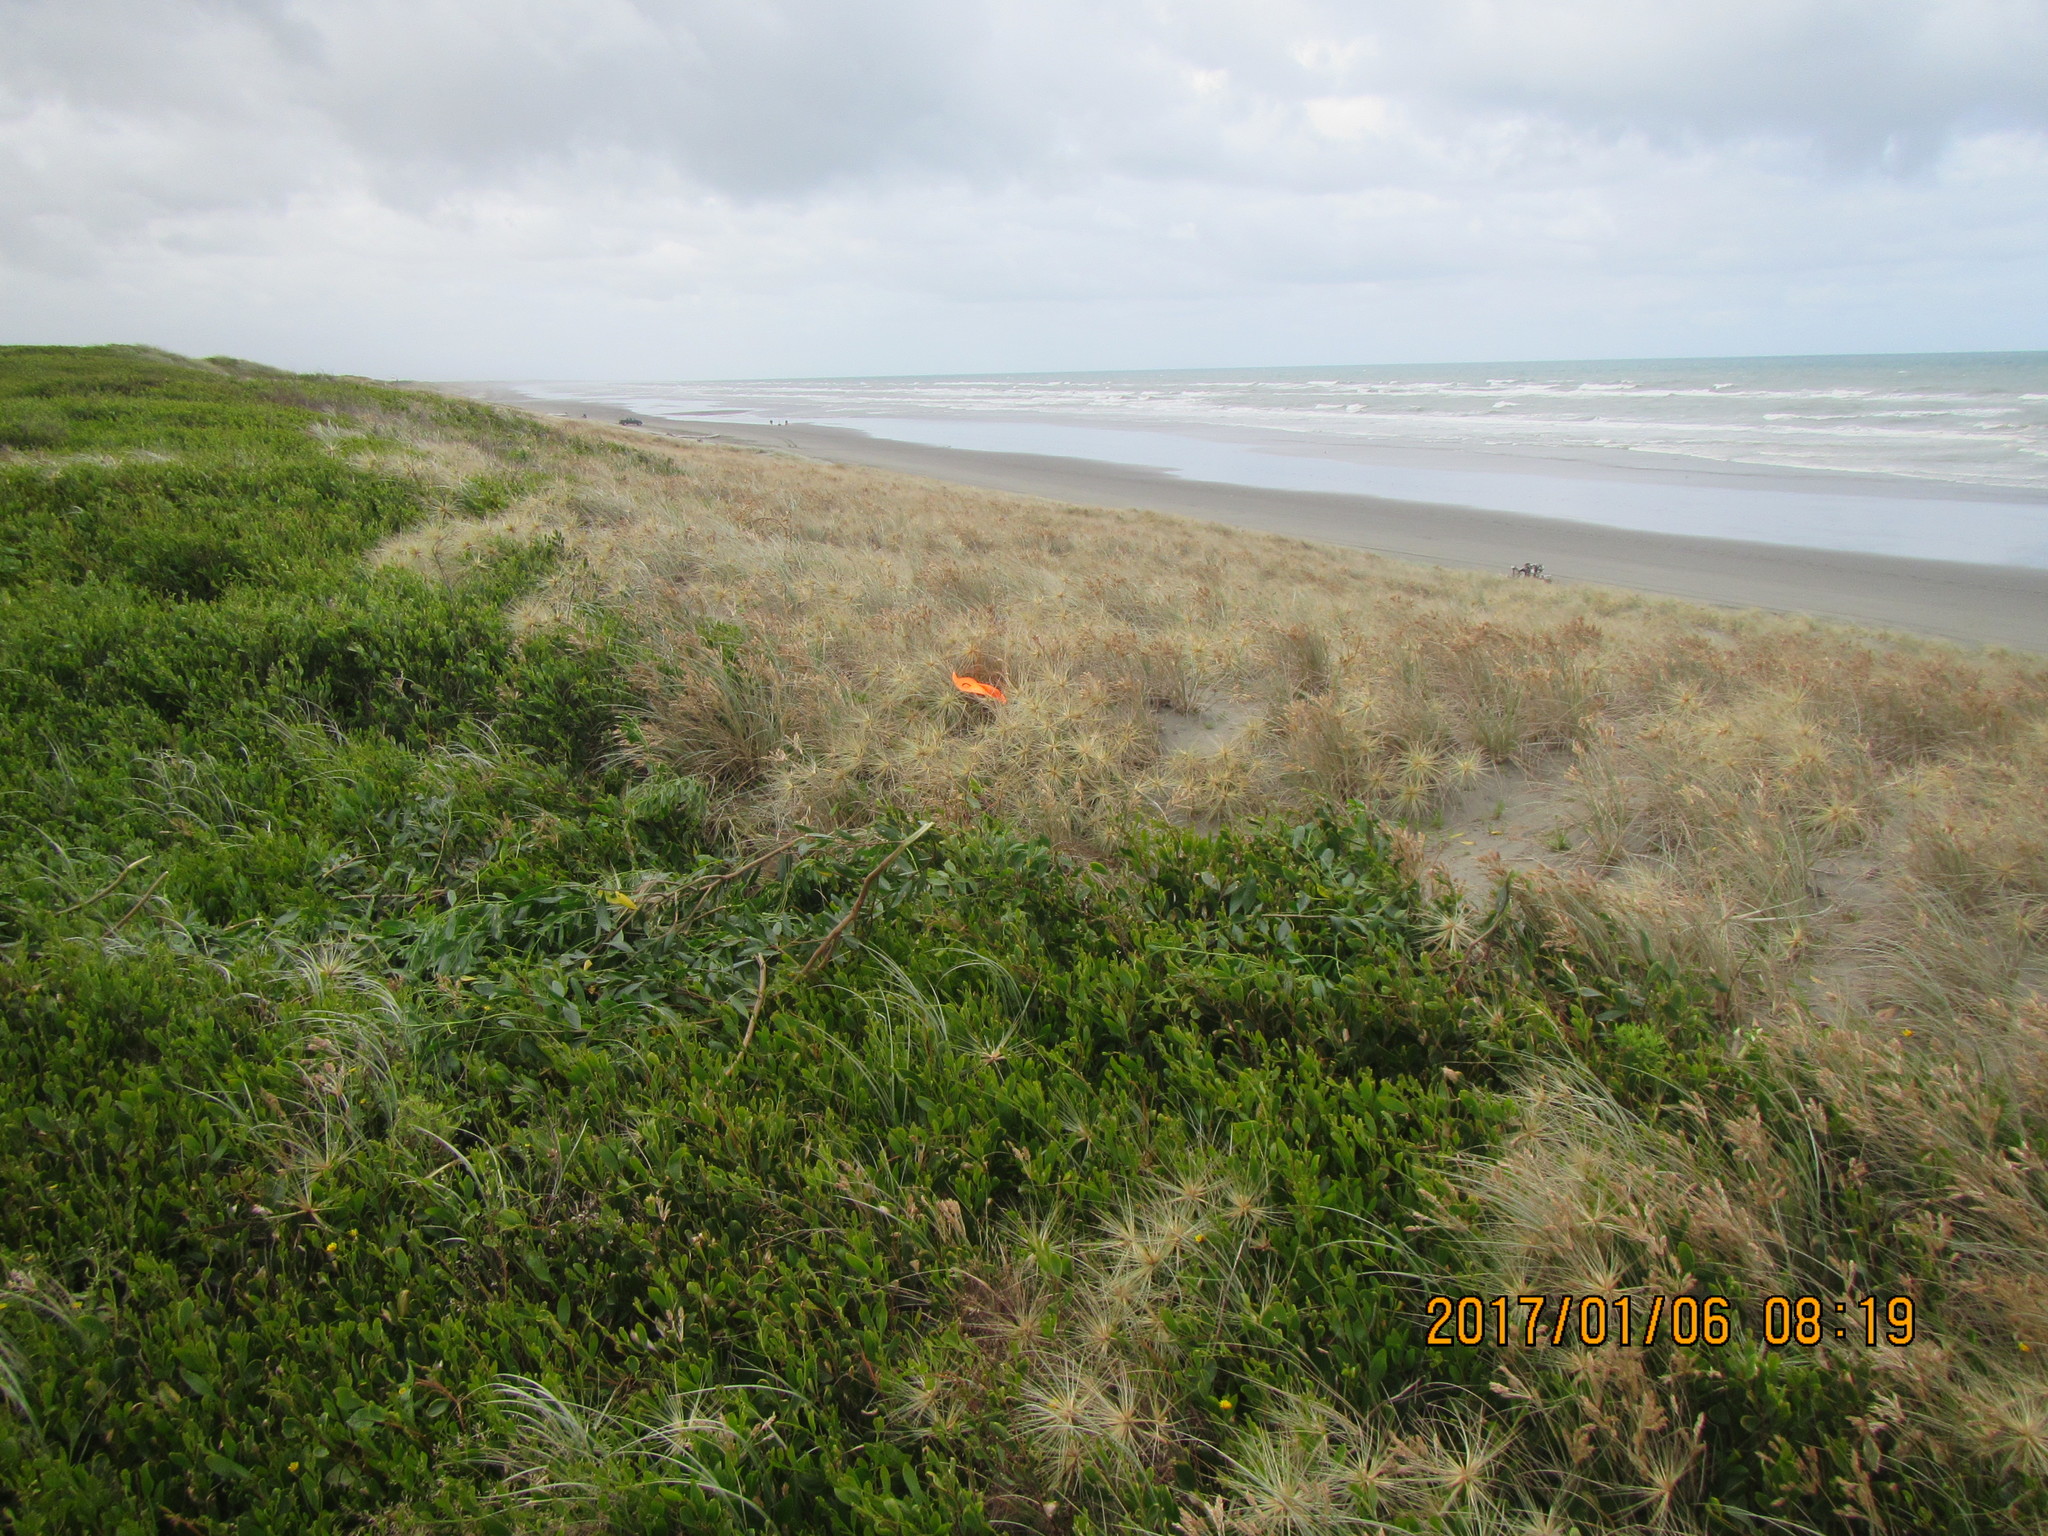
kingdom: Animalia
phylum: Arthropoda
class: Insecta
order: Coleoptera
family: Coccinellidae
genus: Coccinella
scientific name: Coccinella undecimpunctata
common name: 11-spot ladybird
